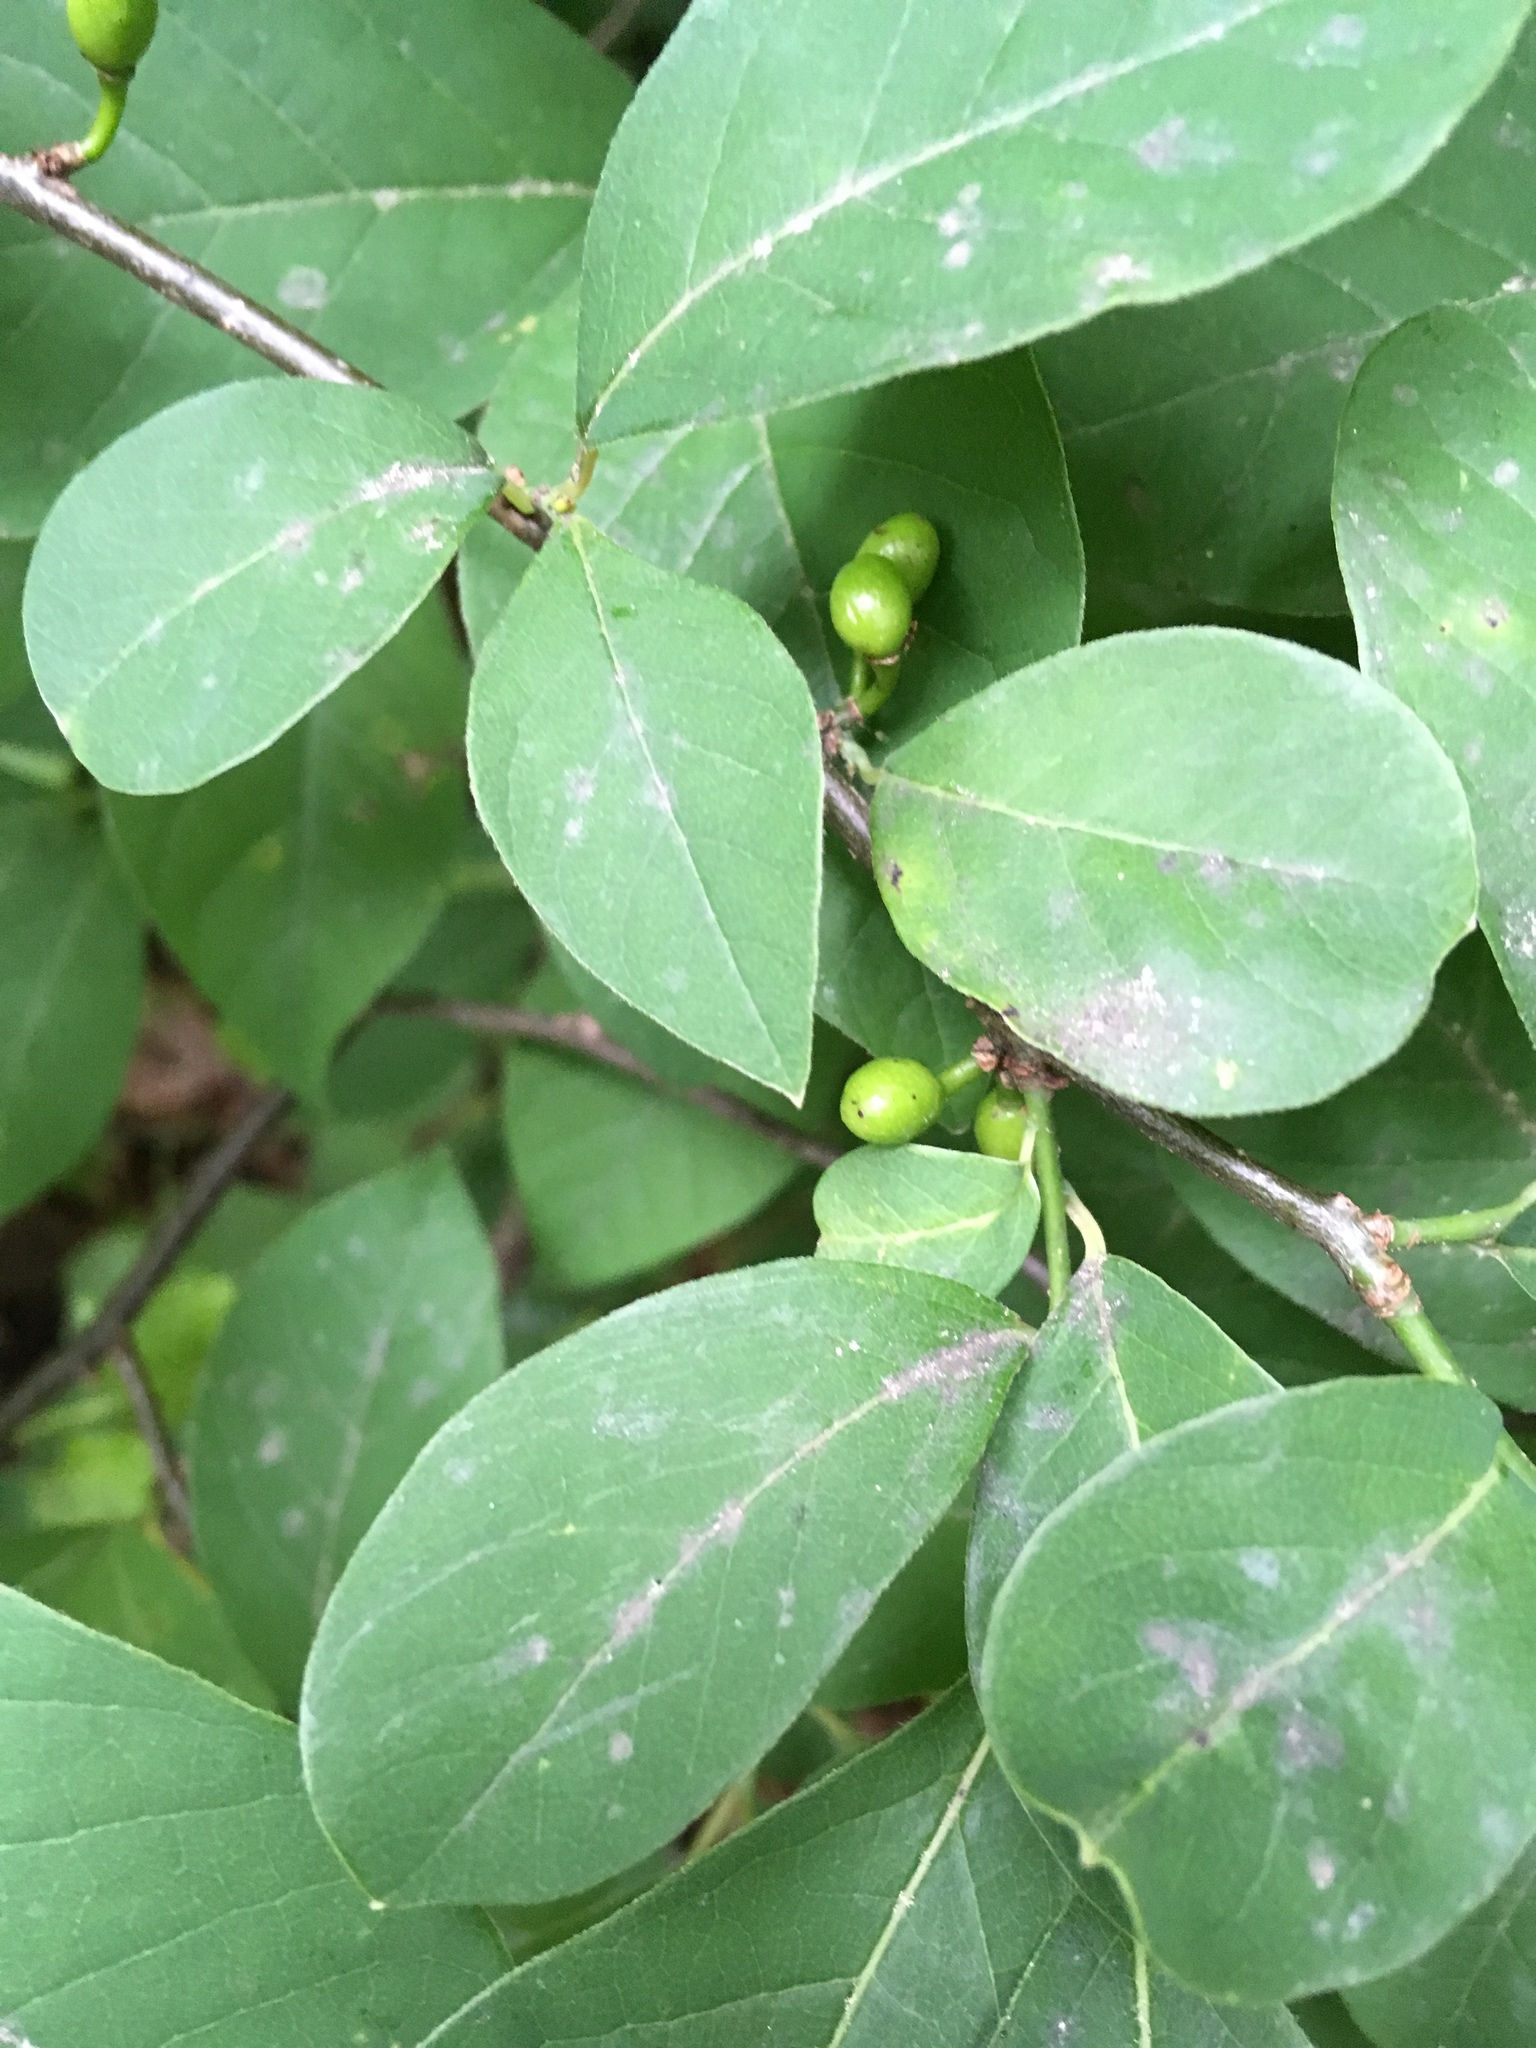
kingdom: Plantae
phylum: Tracheophyta
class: Magnoliopsida
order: Laurales
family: Lauraceae
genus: Lindera
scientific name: Lindera benzoin
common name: Spicebush
